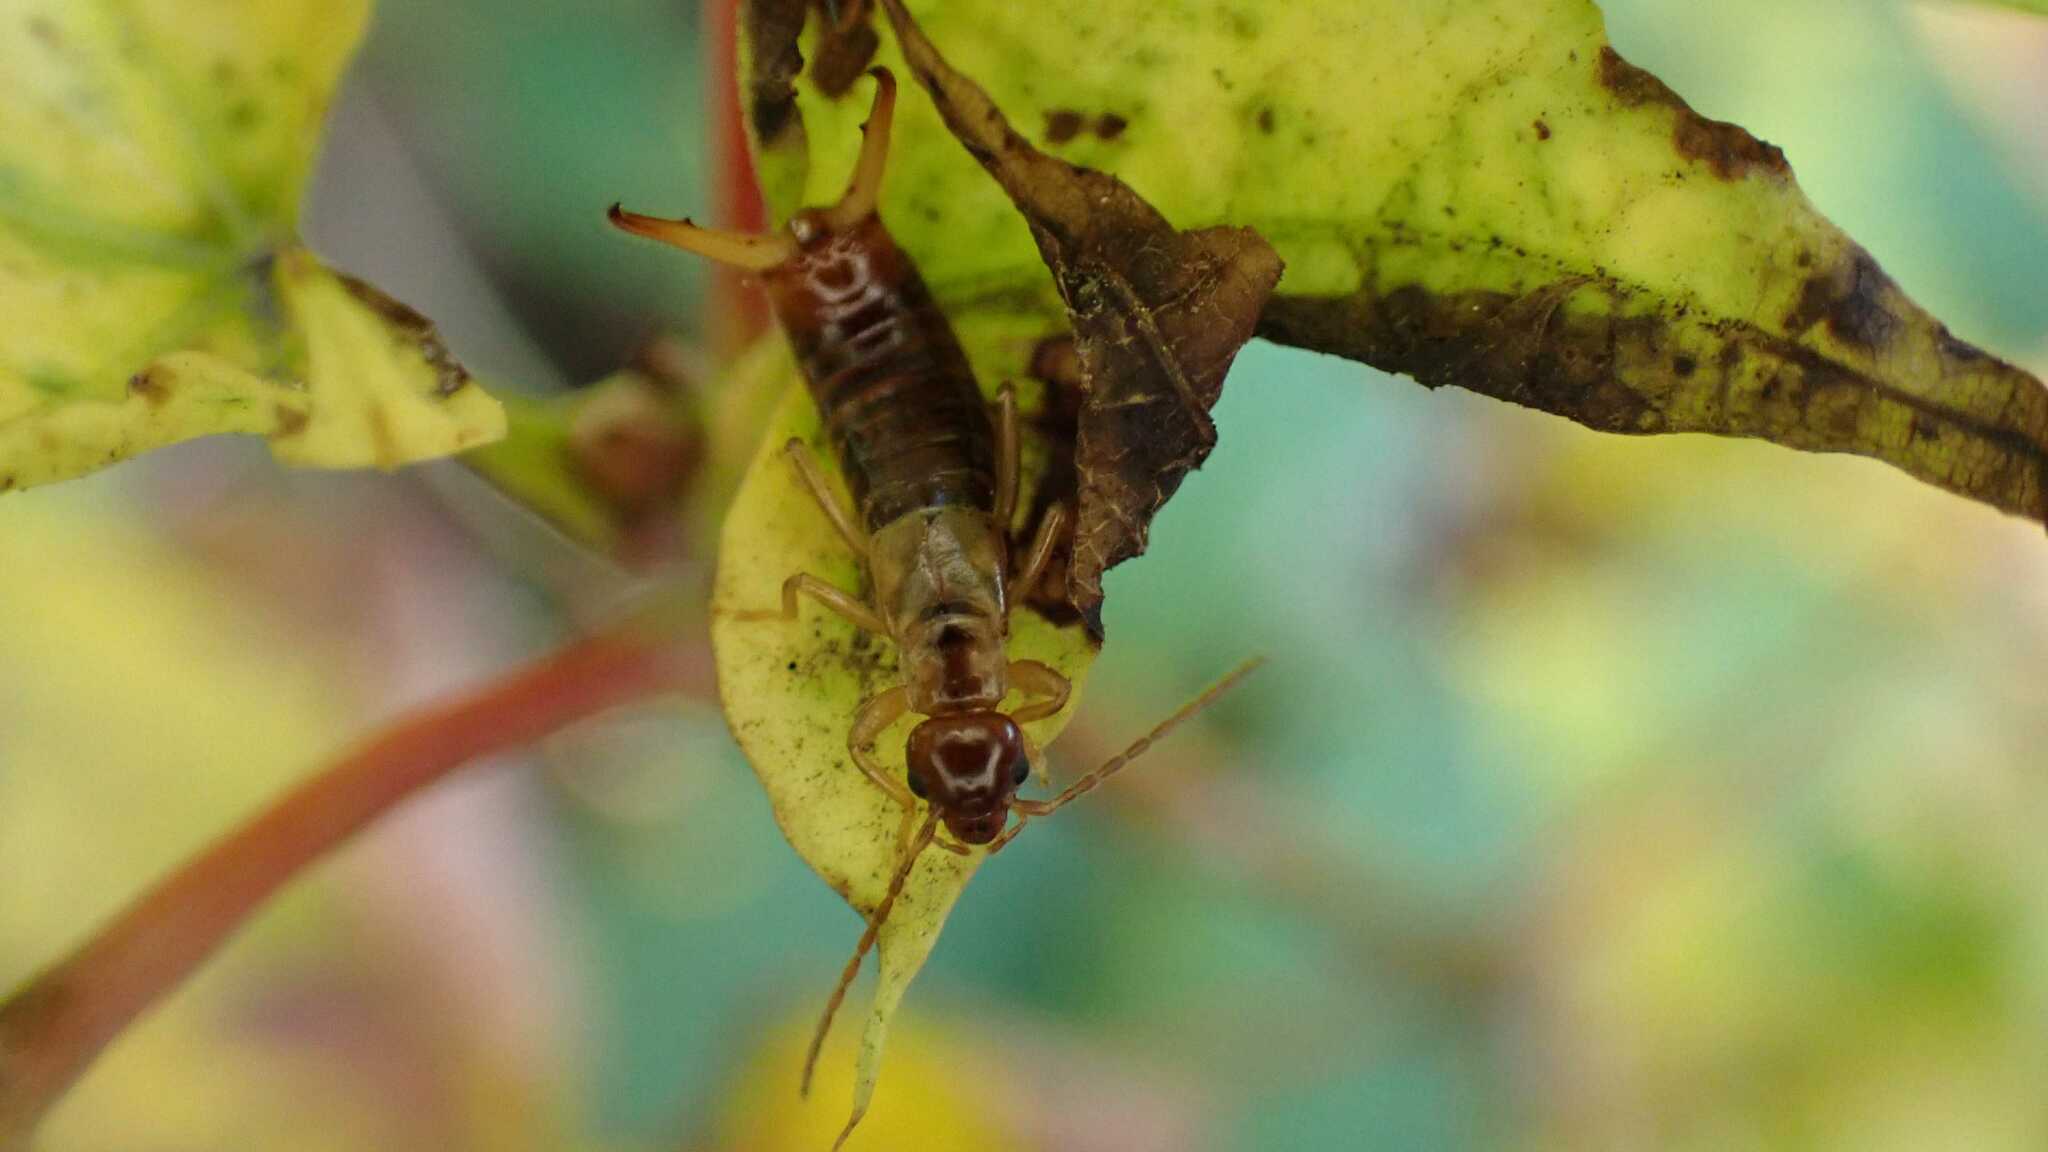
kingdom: Animalia
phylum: Arthropoda
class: Insecta
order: Dermaptera
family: Forficulidae
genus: Apterygida
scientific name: Apterygida albipennis
